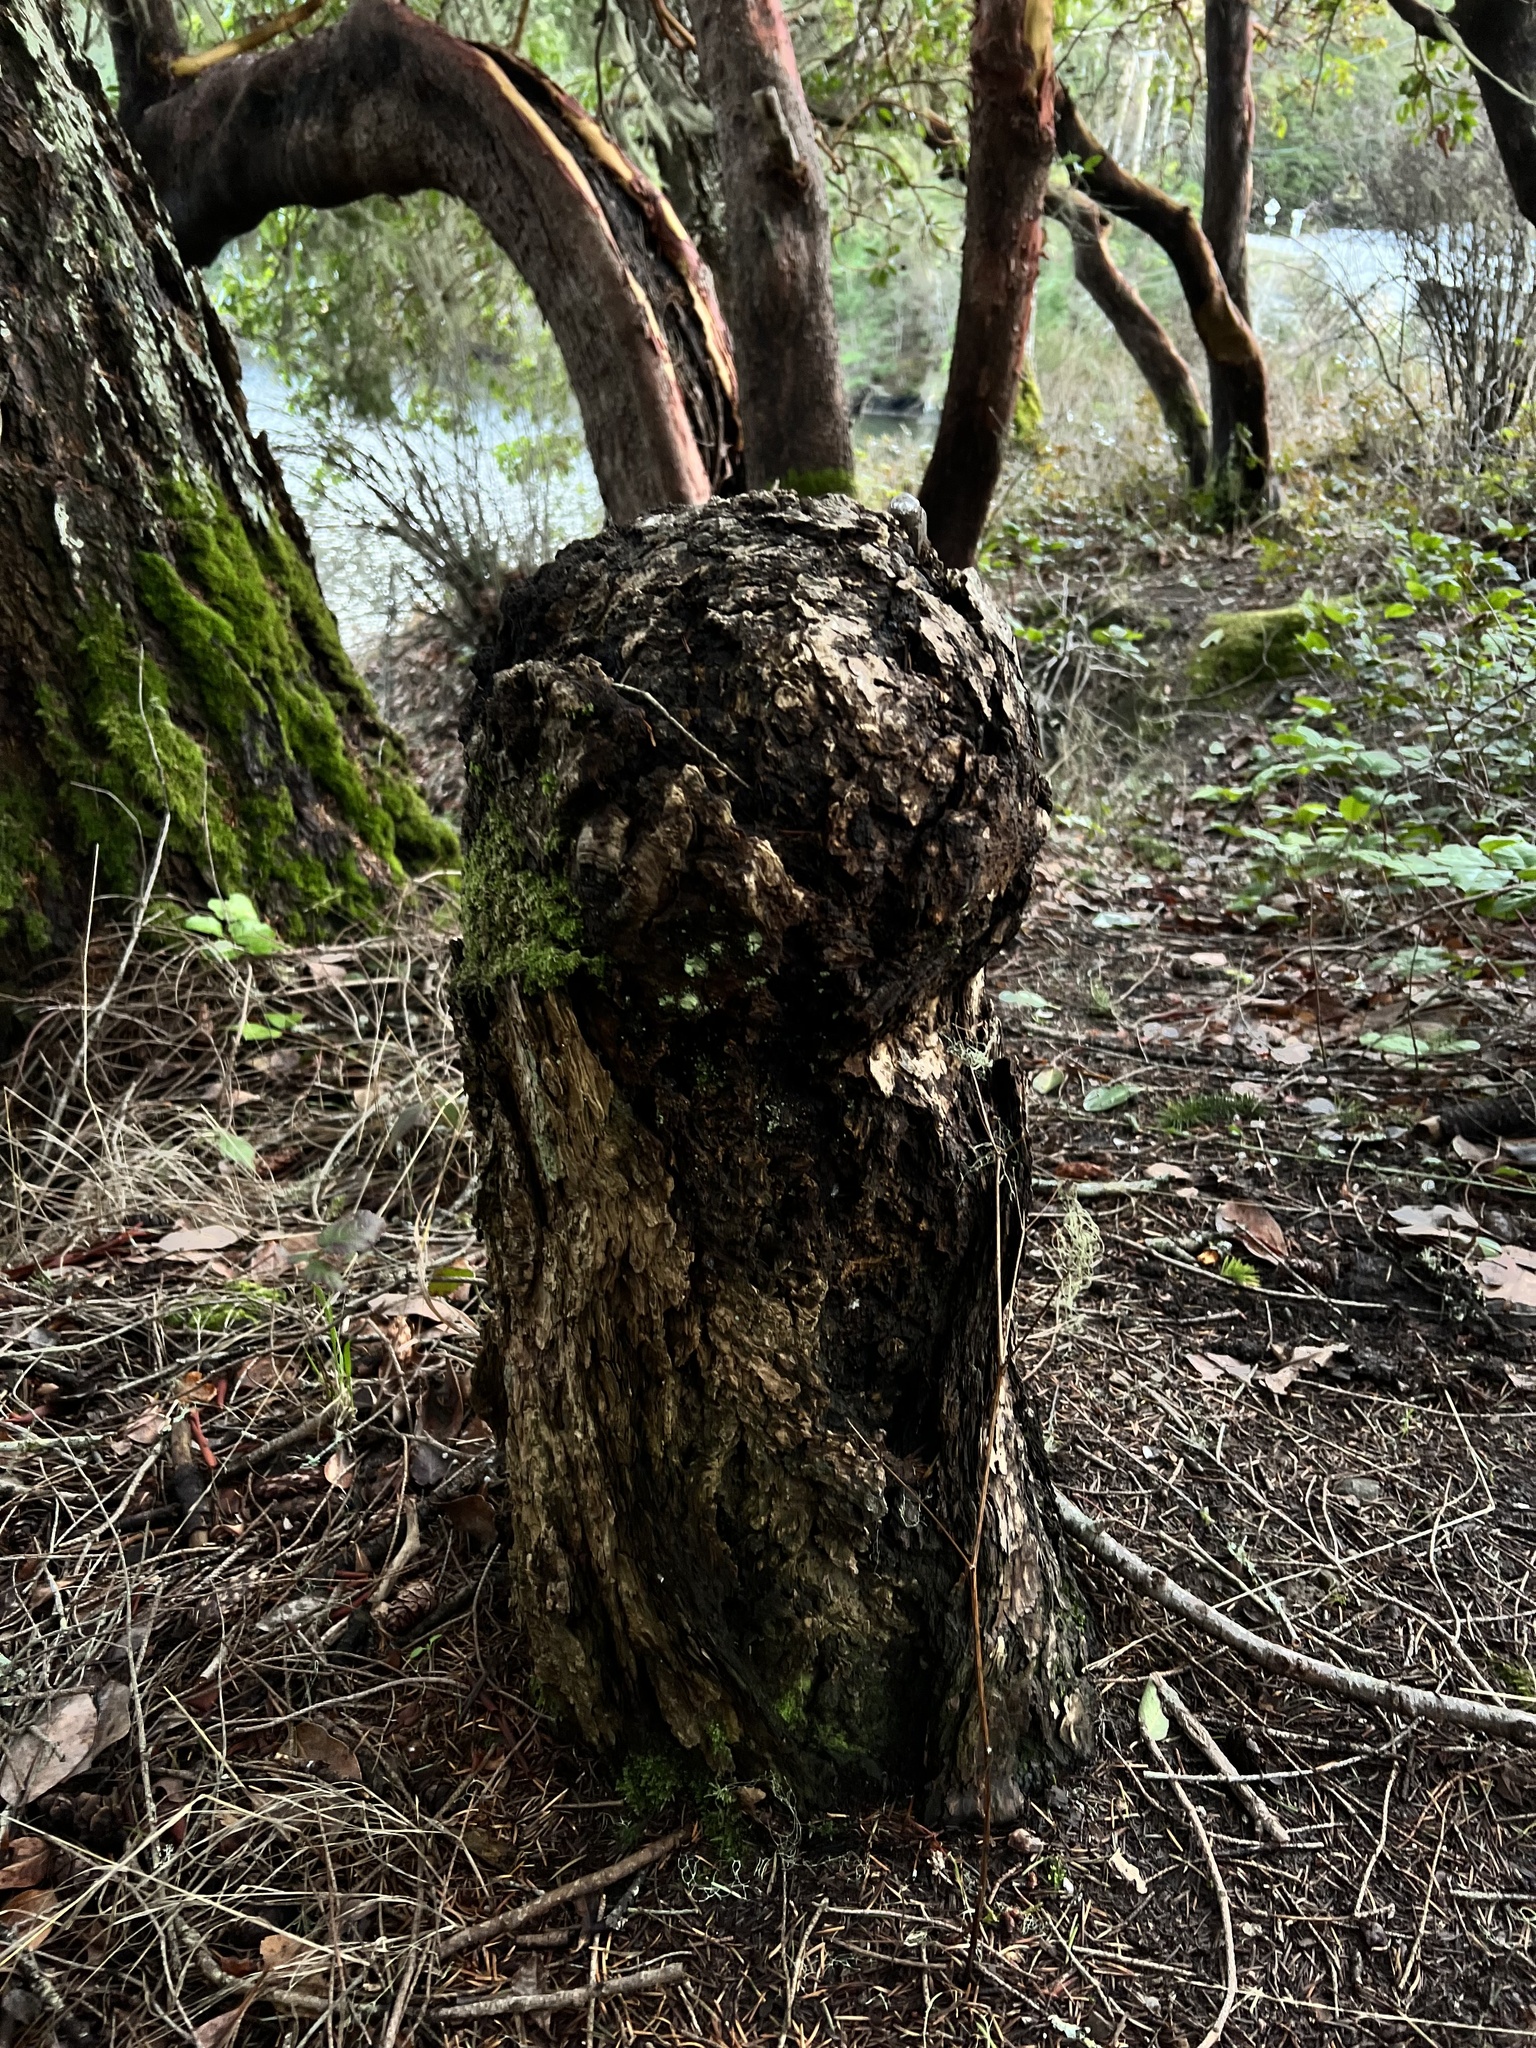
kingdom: Plantae
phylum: Tracheophyta
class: Pinopsida
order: Pinales
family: Pinaceae
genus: Pseudotsuga
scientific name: Pseudotsuga menziesii
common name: Douglas fir
